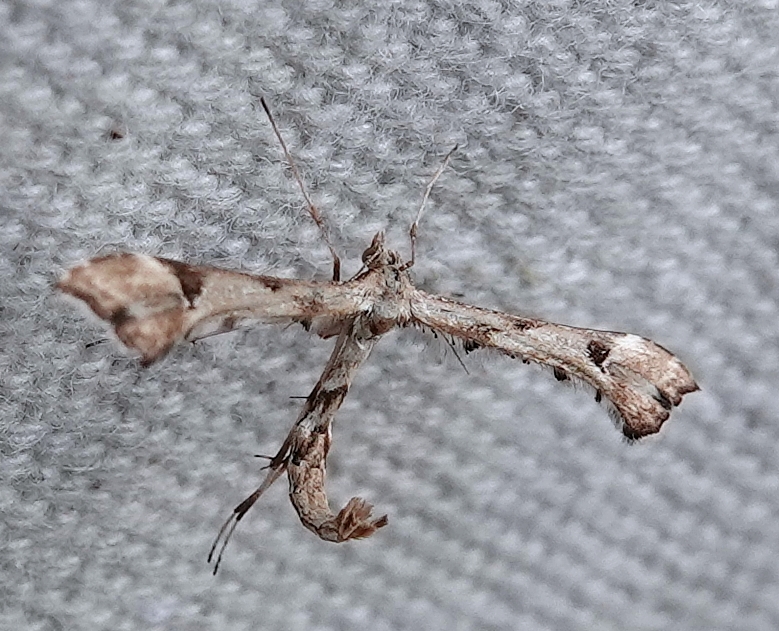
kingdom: Animalia
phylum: Arthropoda
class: Insecta
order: Lepidoptera
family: Pterophoridae
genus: Platyptilia
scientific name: Platyptilia carduidactylus
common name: Artichoke plume moth
